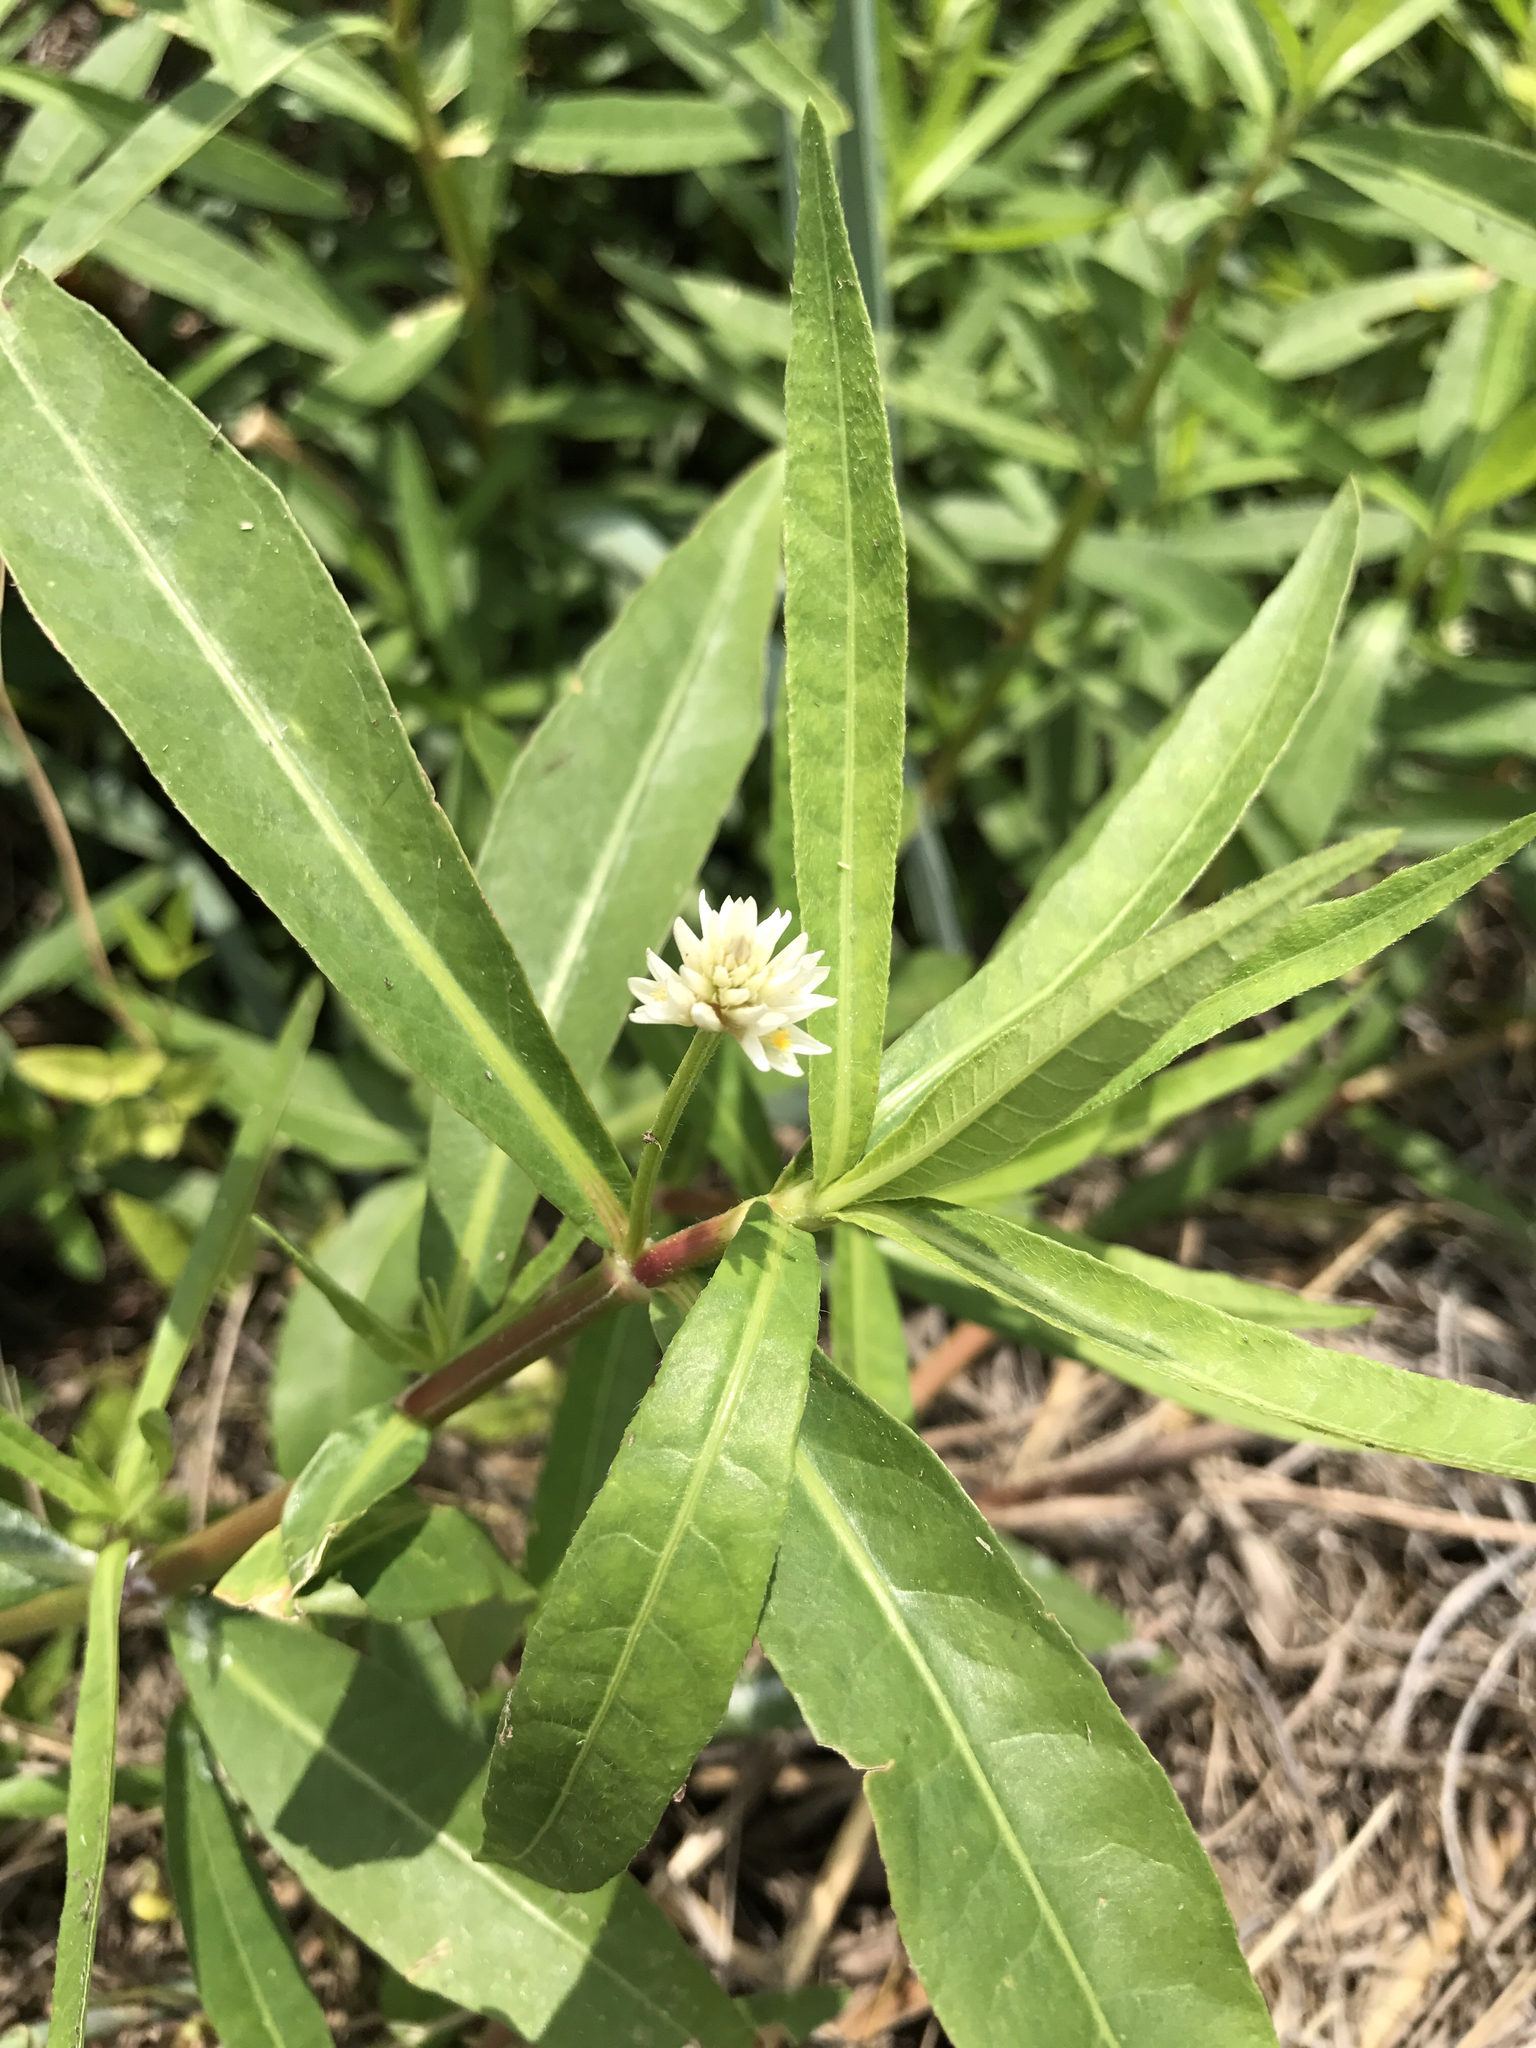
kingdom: Plantae
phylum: Tracheophyta
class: Magnoliopsida
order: Caryophyllales
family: Amaranthaceae
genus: Alternanthera
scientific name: Alternanthera philoxeroides
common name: Alligatorweed
